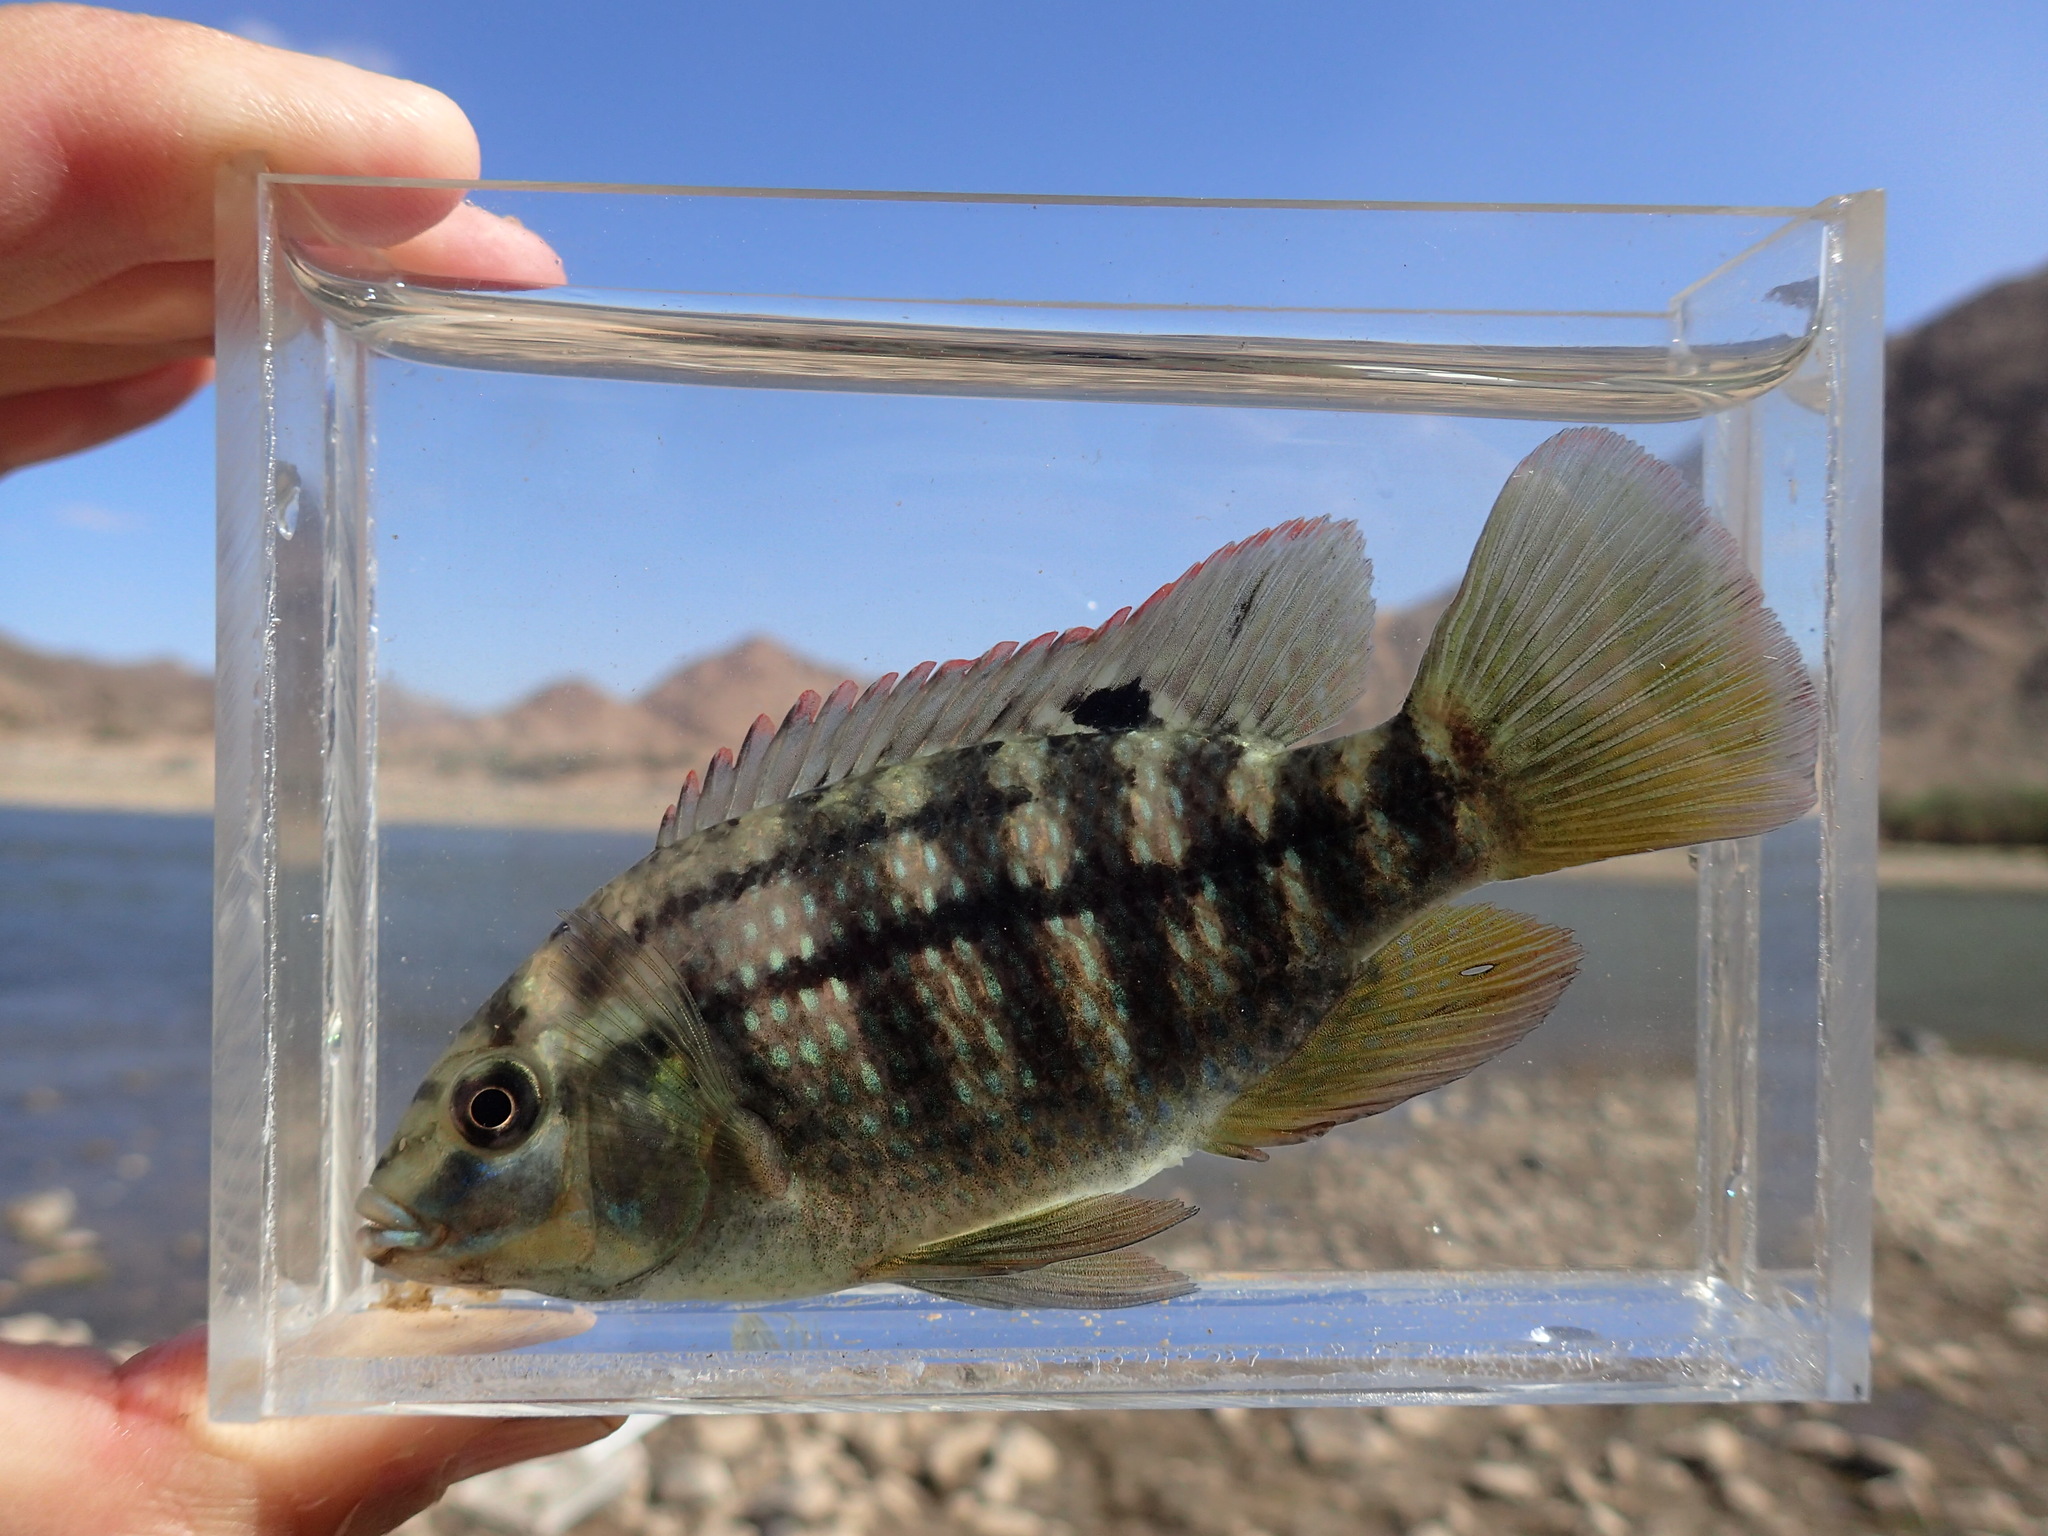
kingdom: Animalia
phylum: Chordata
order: Perciformes
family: Cichlidae
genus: Tilapia
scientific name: Tilapia sparrmanii
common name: Banded tilapia
